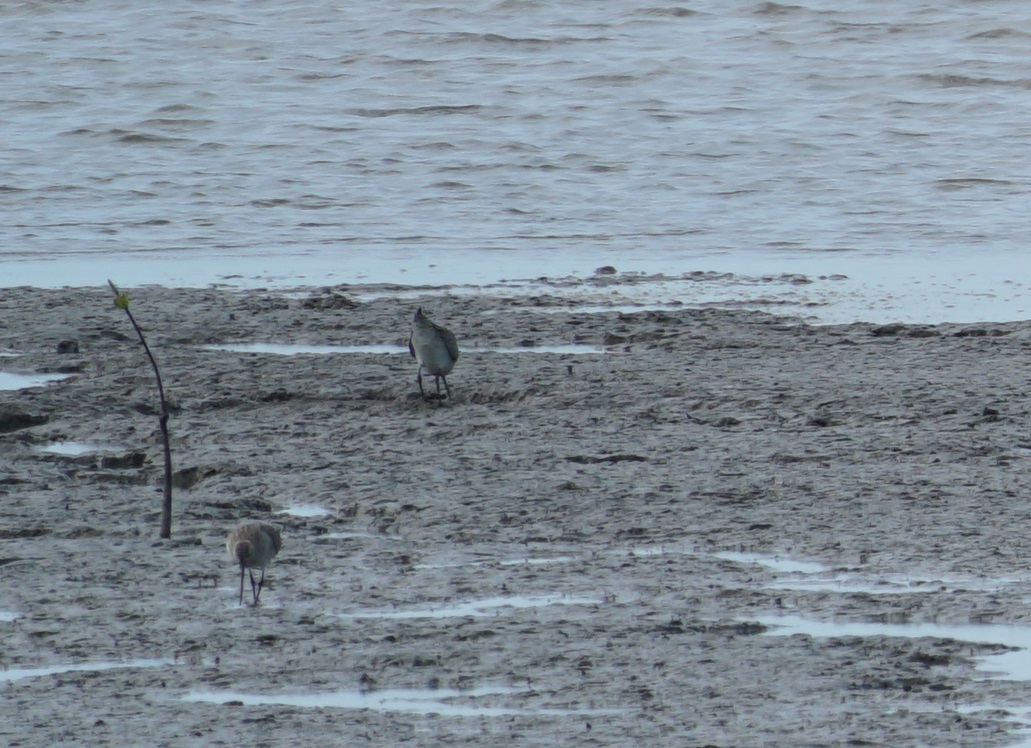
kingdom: Animalia
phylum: Chordata
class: Aves
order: Charadriiformes
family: Scolopacidae
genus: Limosa
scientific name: Limosa lapponica
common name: Bar-tailed godwit
